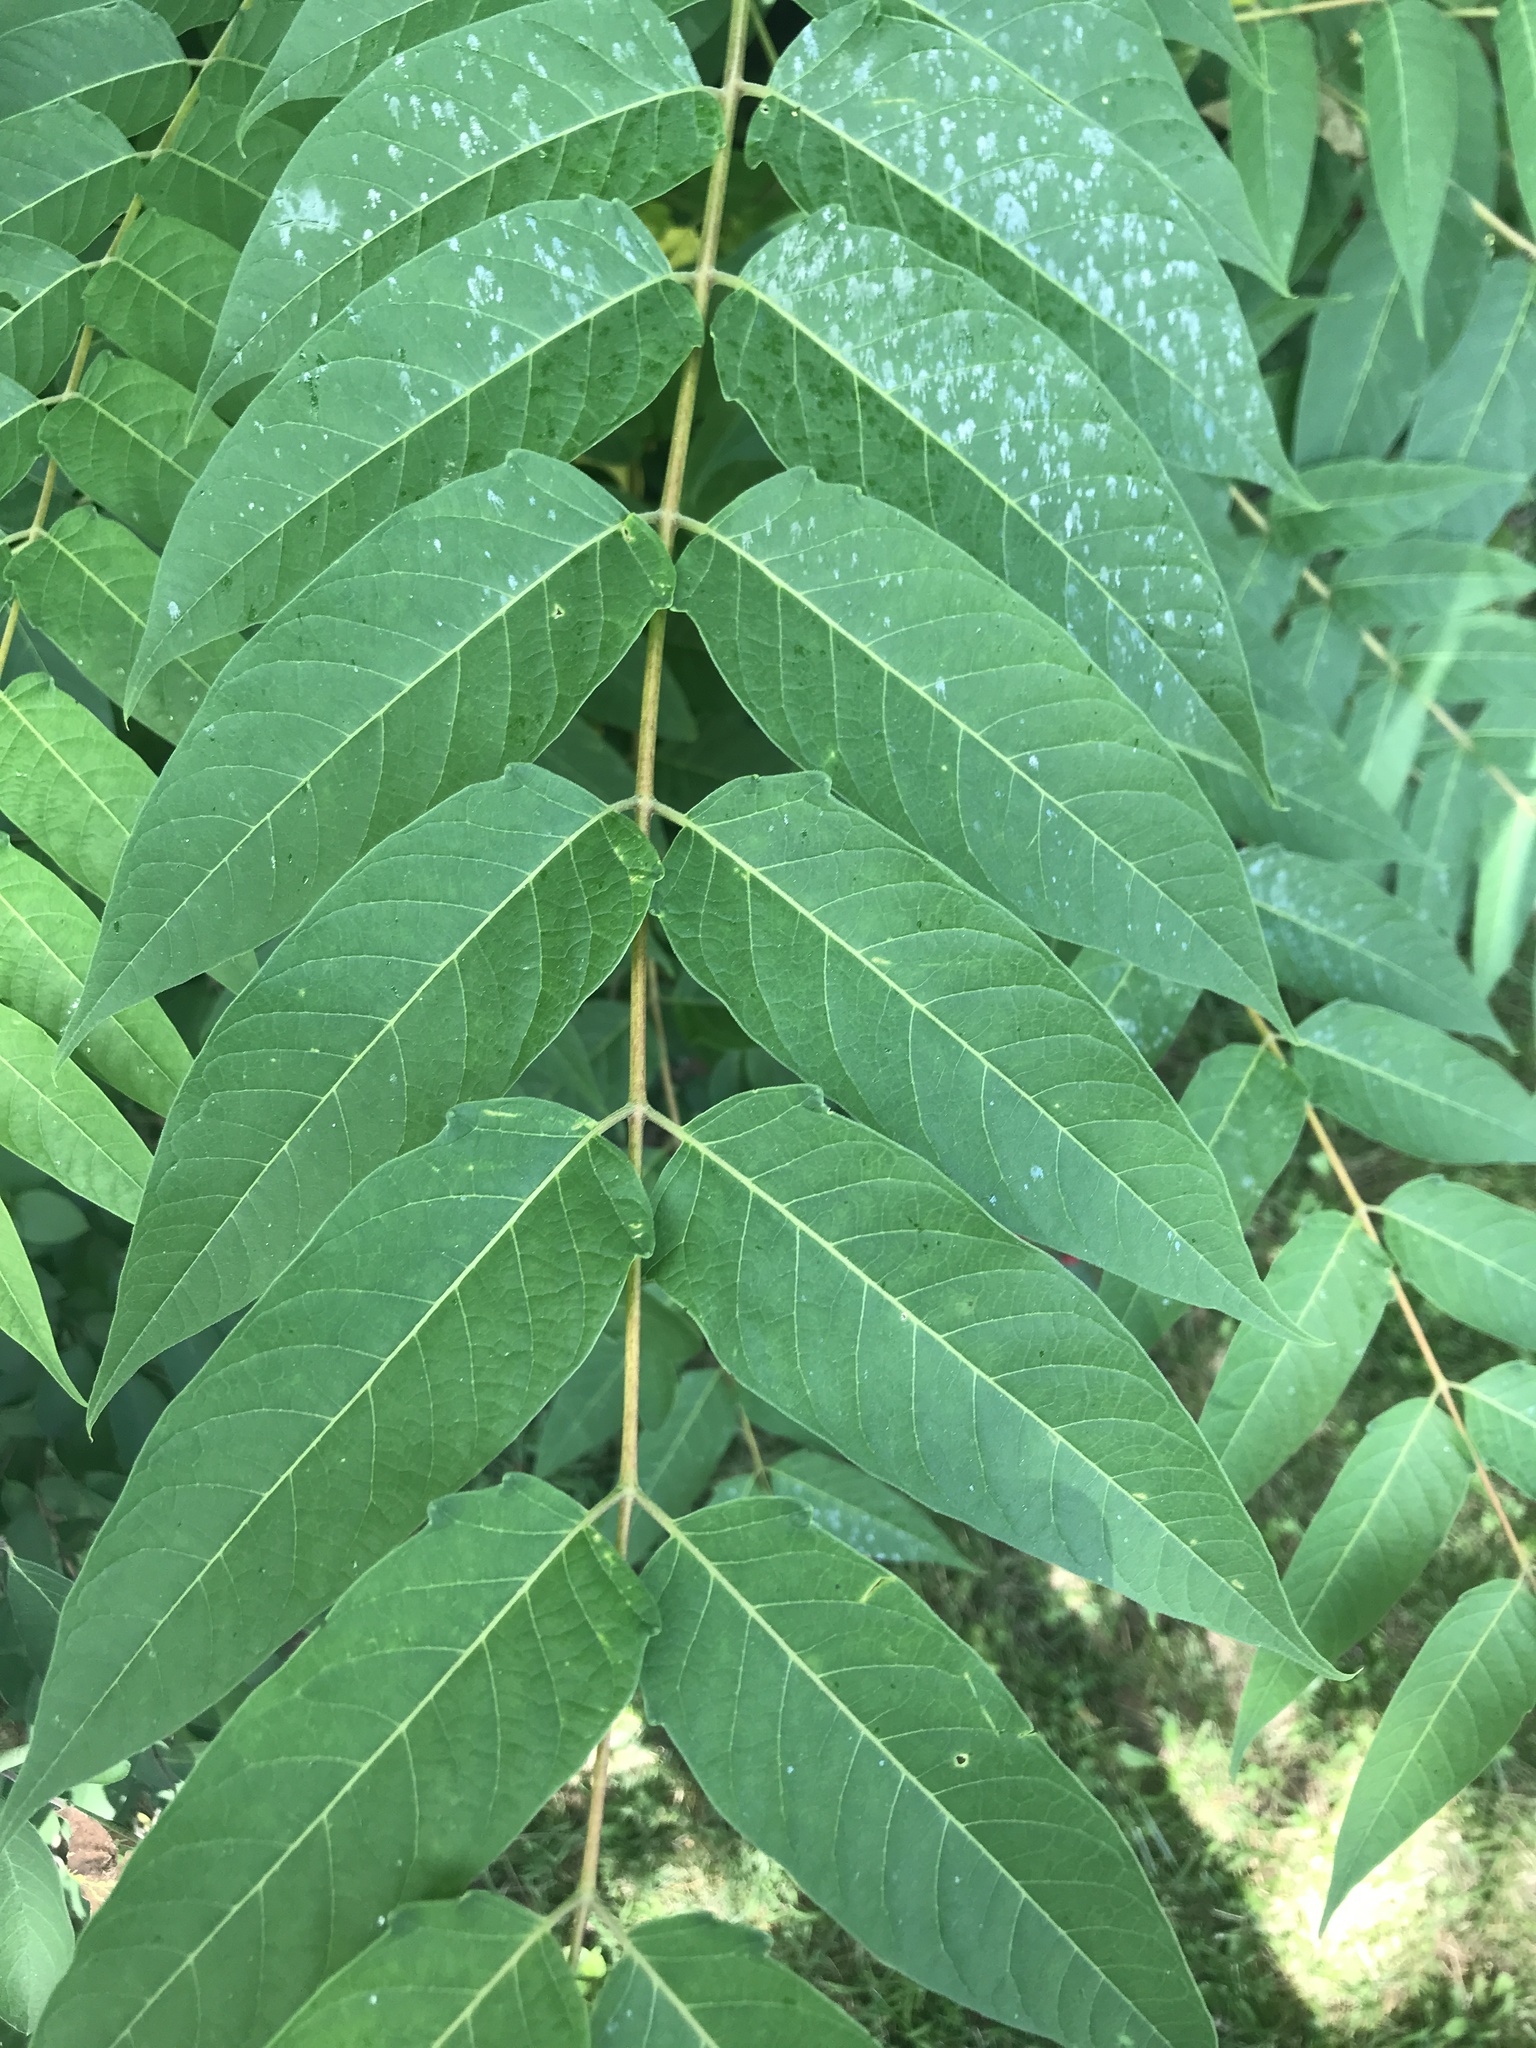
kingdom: Plantae
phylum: Tracheophyta
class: Magnoliopsida
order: Sapindales
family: Simaroubaceae
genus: Ailanthus
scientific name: Ailanthus altissima
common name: Tree-of-heaven
